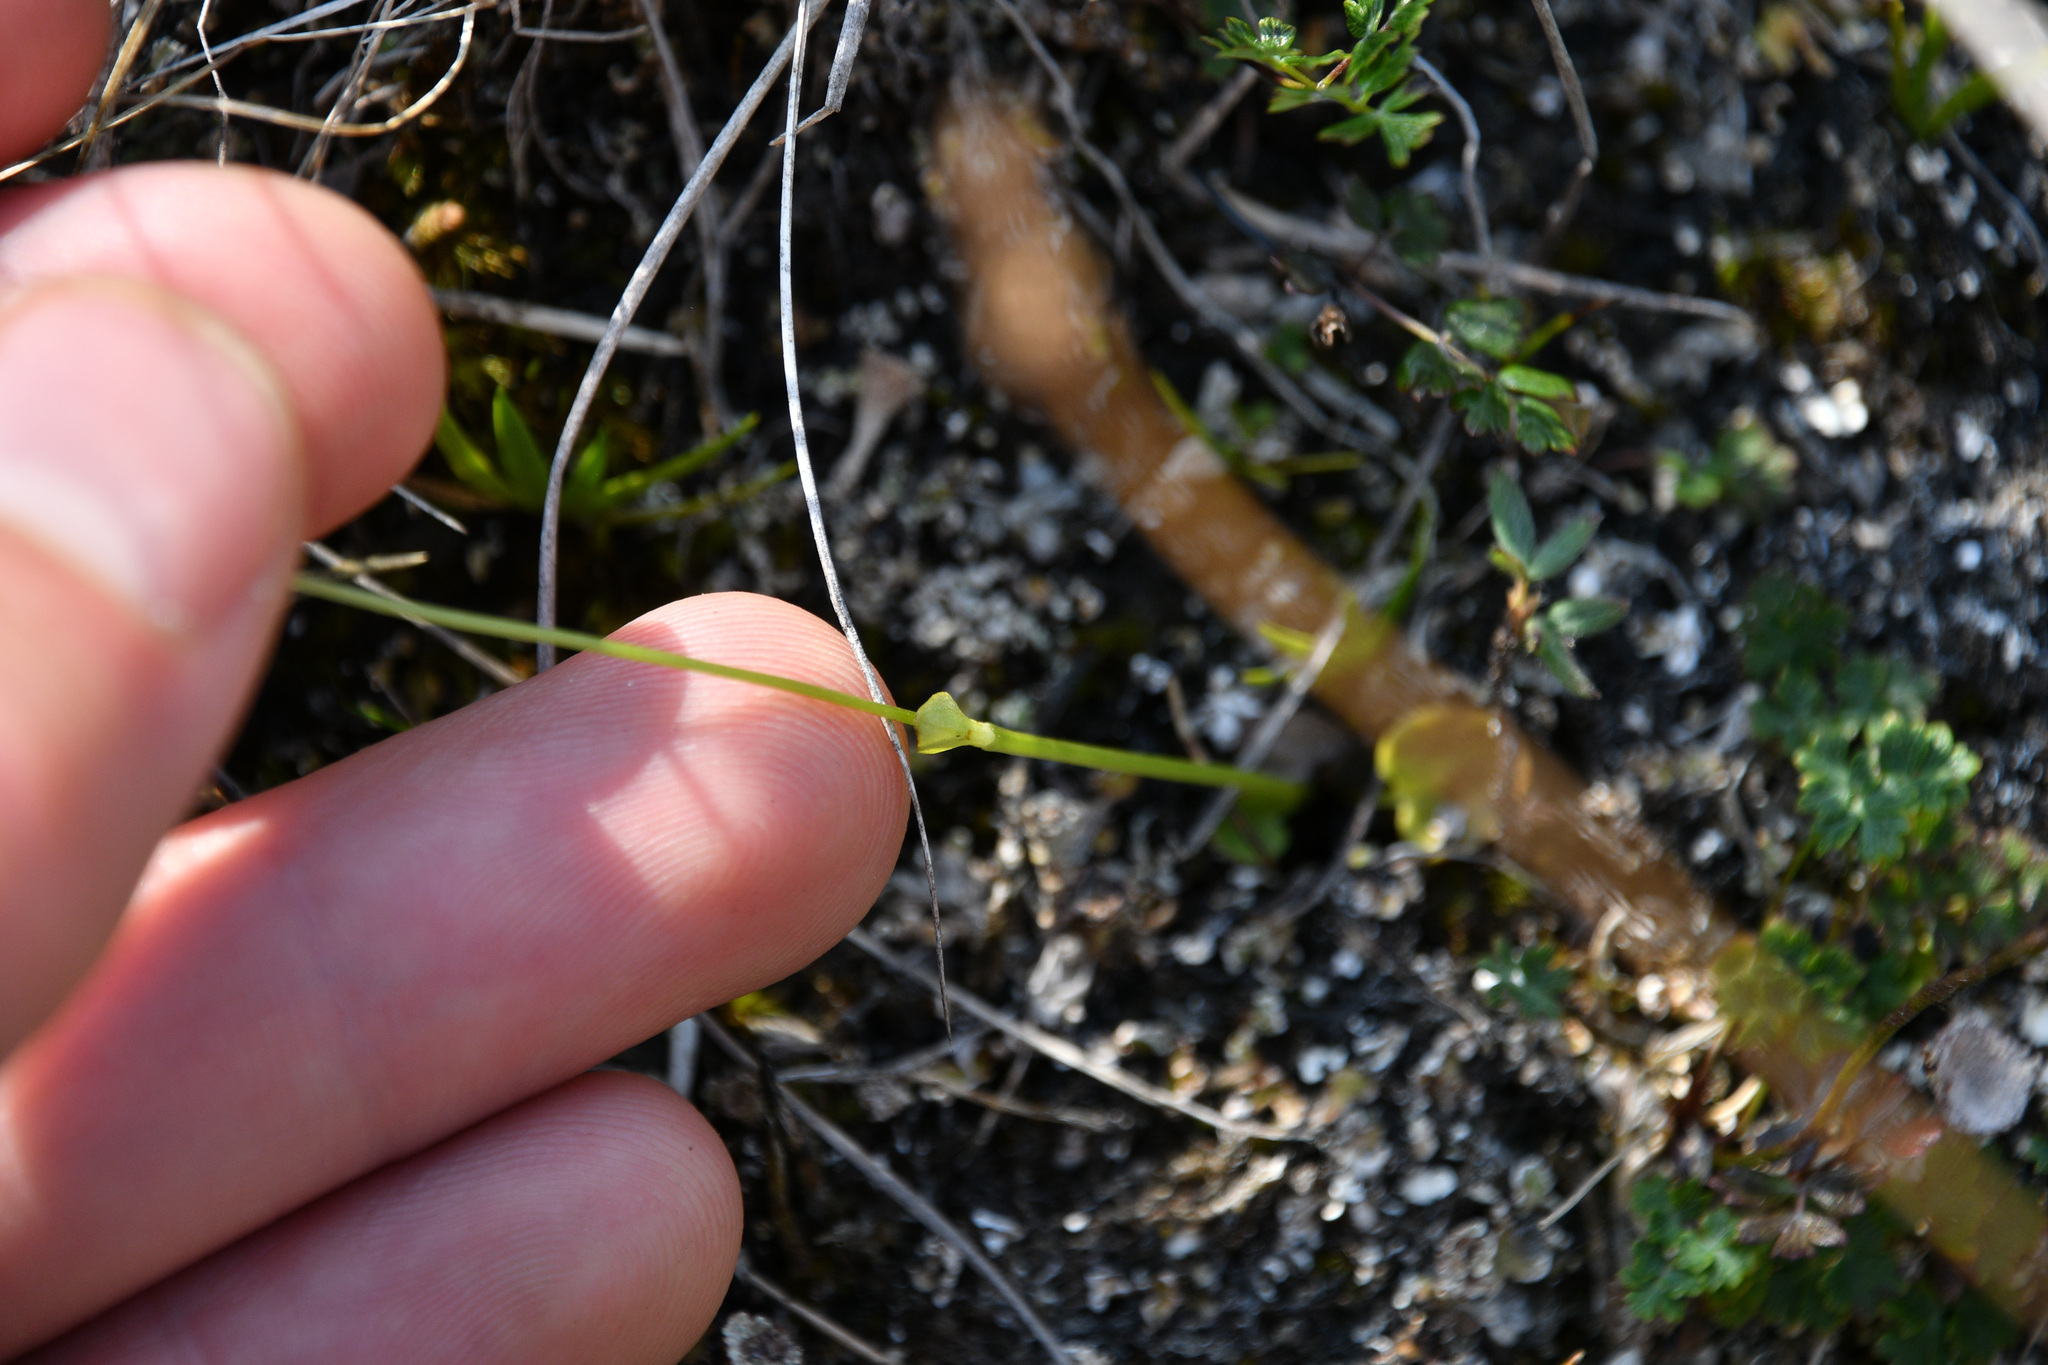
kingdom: Plantae
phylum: Tracheophyta
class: Magnoliopsida
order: Celastrales
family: Parnassiaceae
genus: Parnassia
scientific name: Parnassia palustris
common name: Grass-of-parnassus
